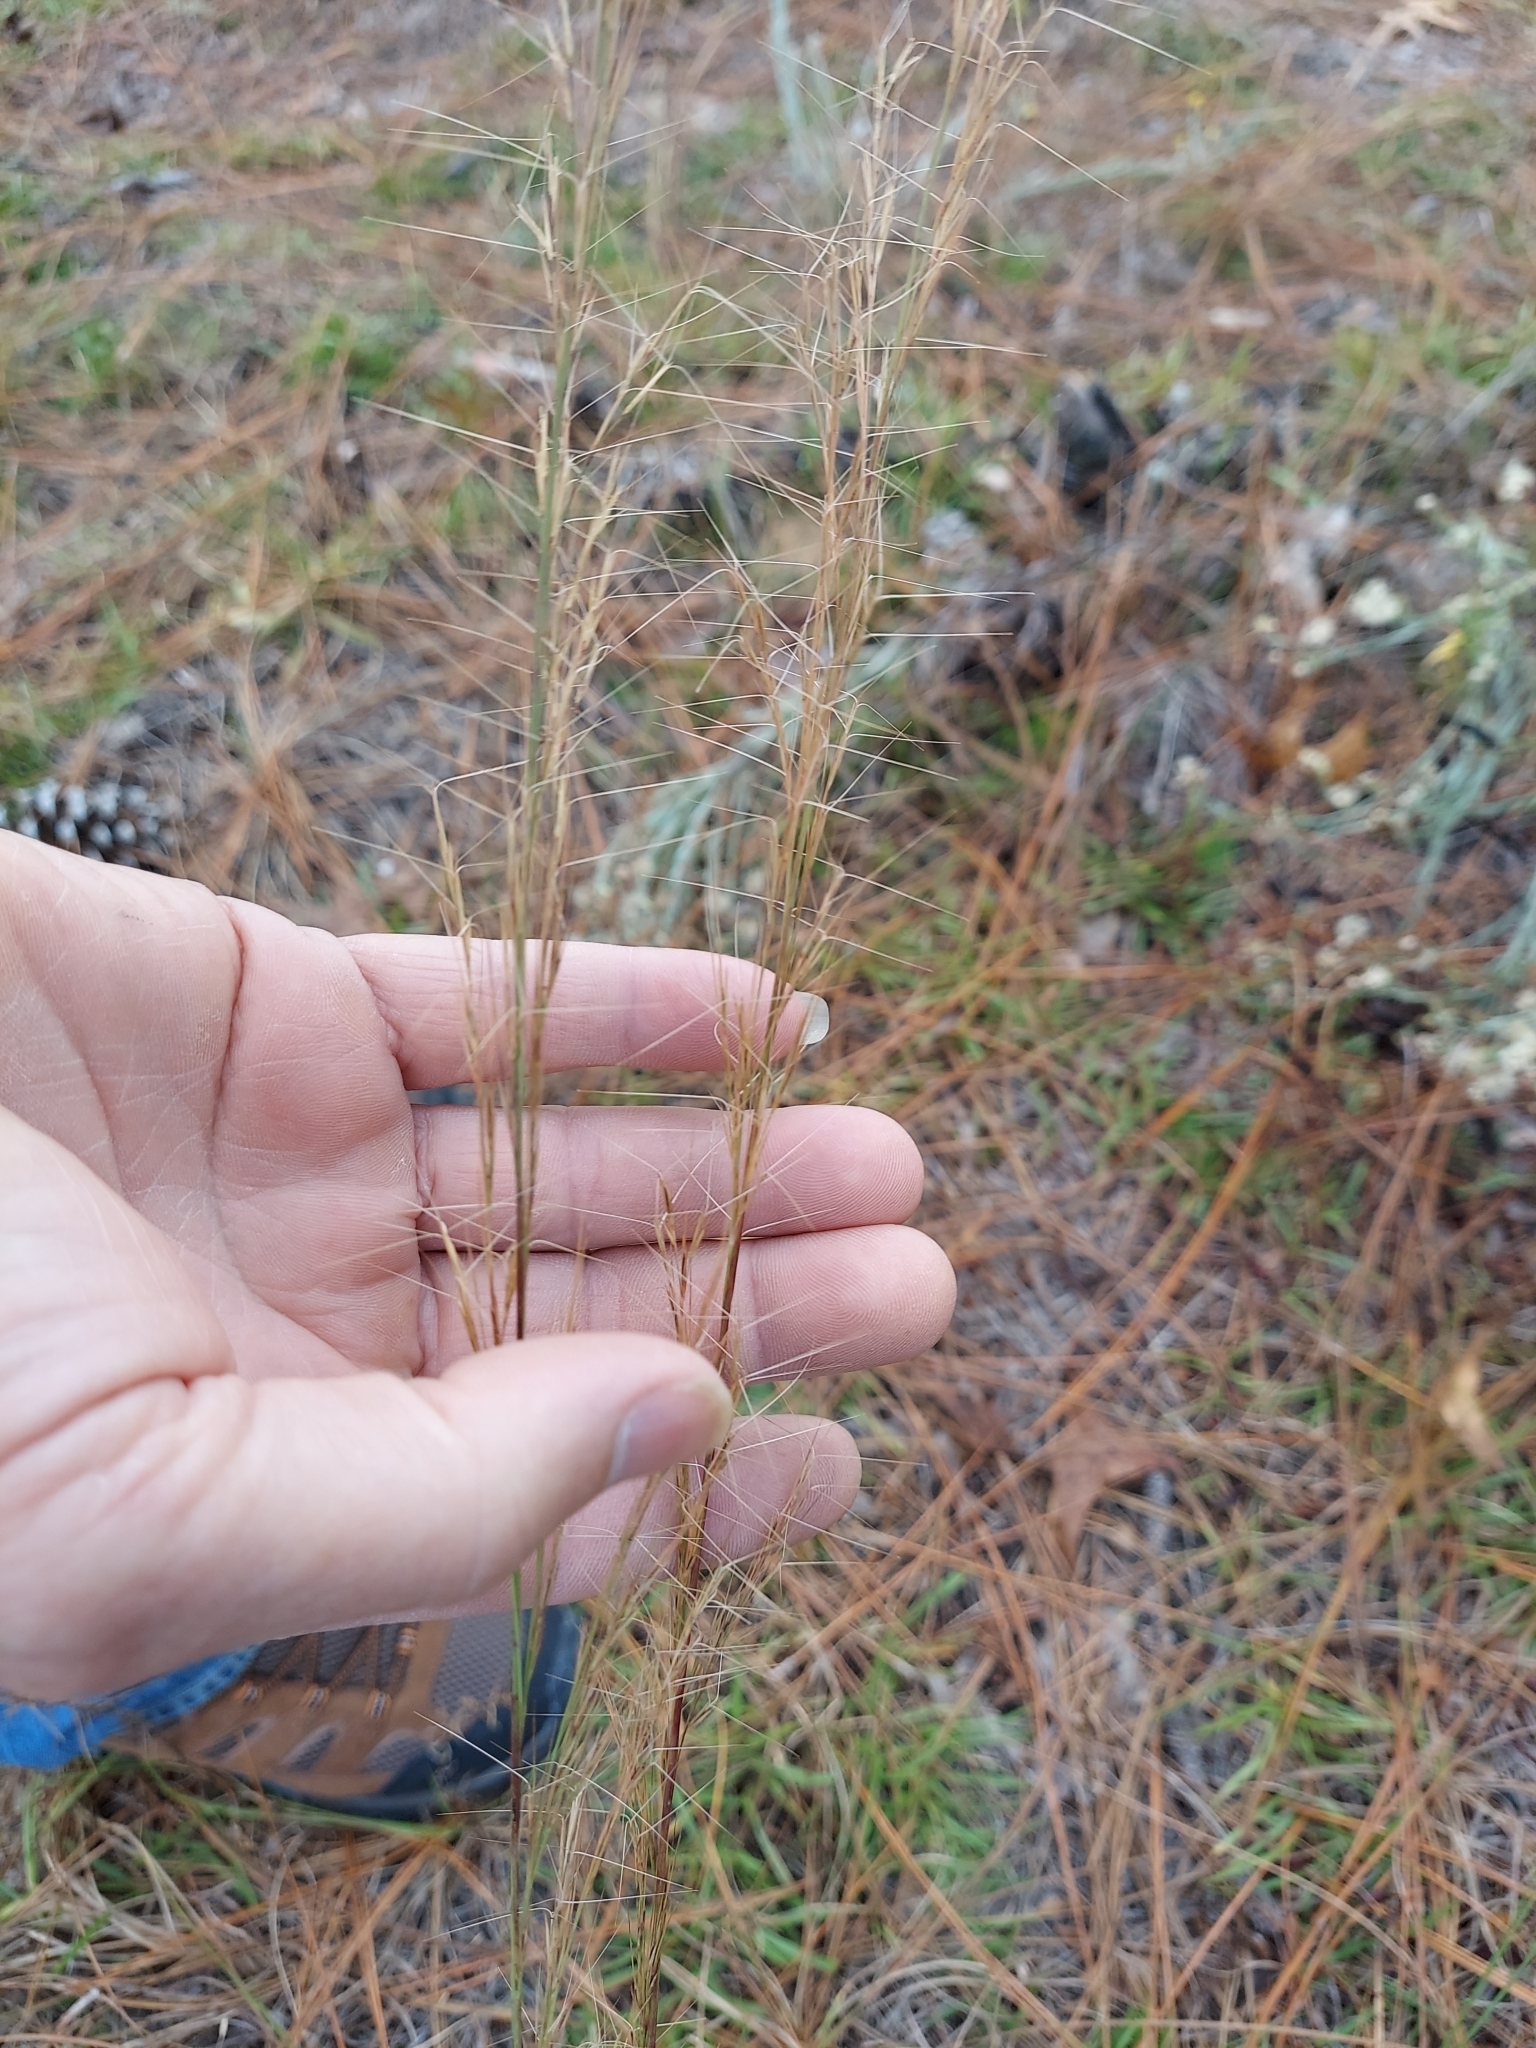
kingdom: Plantae
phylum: Tracheophyta
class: Liliopsida
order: Poales
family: Poaceae
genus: Aristida
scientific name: Aristida condensata
